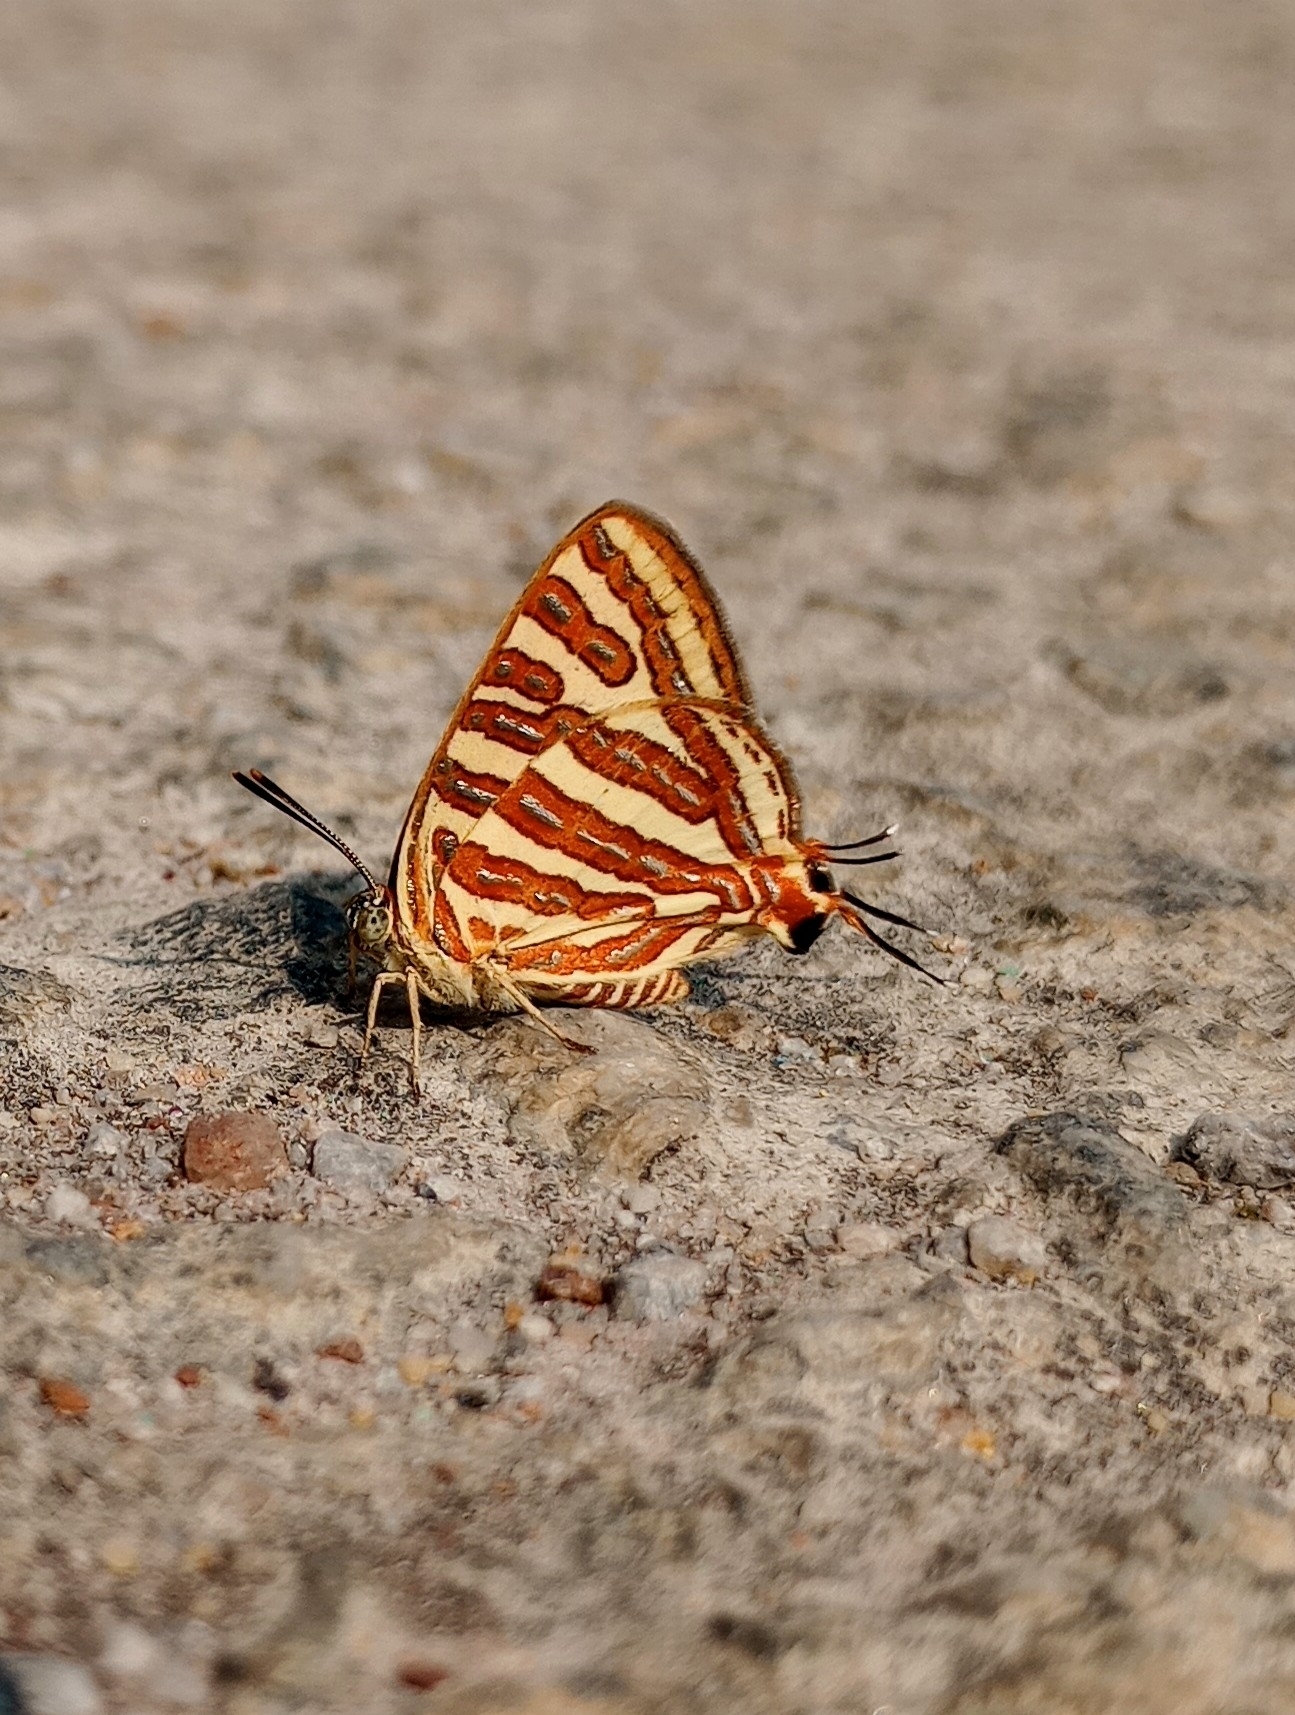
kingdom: Animalia
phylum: Arthropoda
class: Insecta
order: Lepidoptera
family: Lycaenidae
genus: Cigaritis
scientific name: Cigaritis vulcanus
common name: Common silverline
